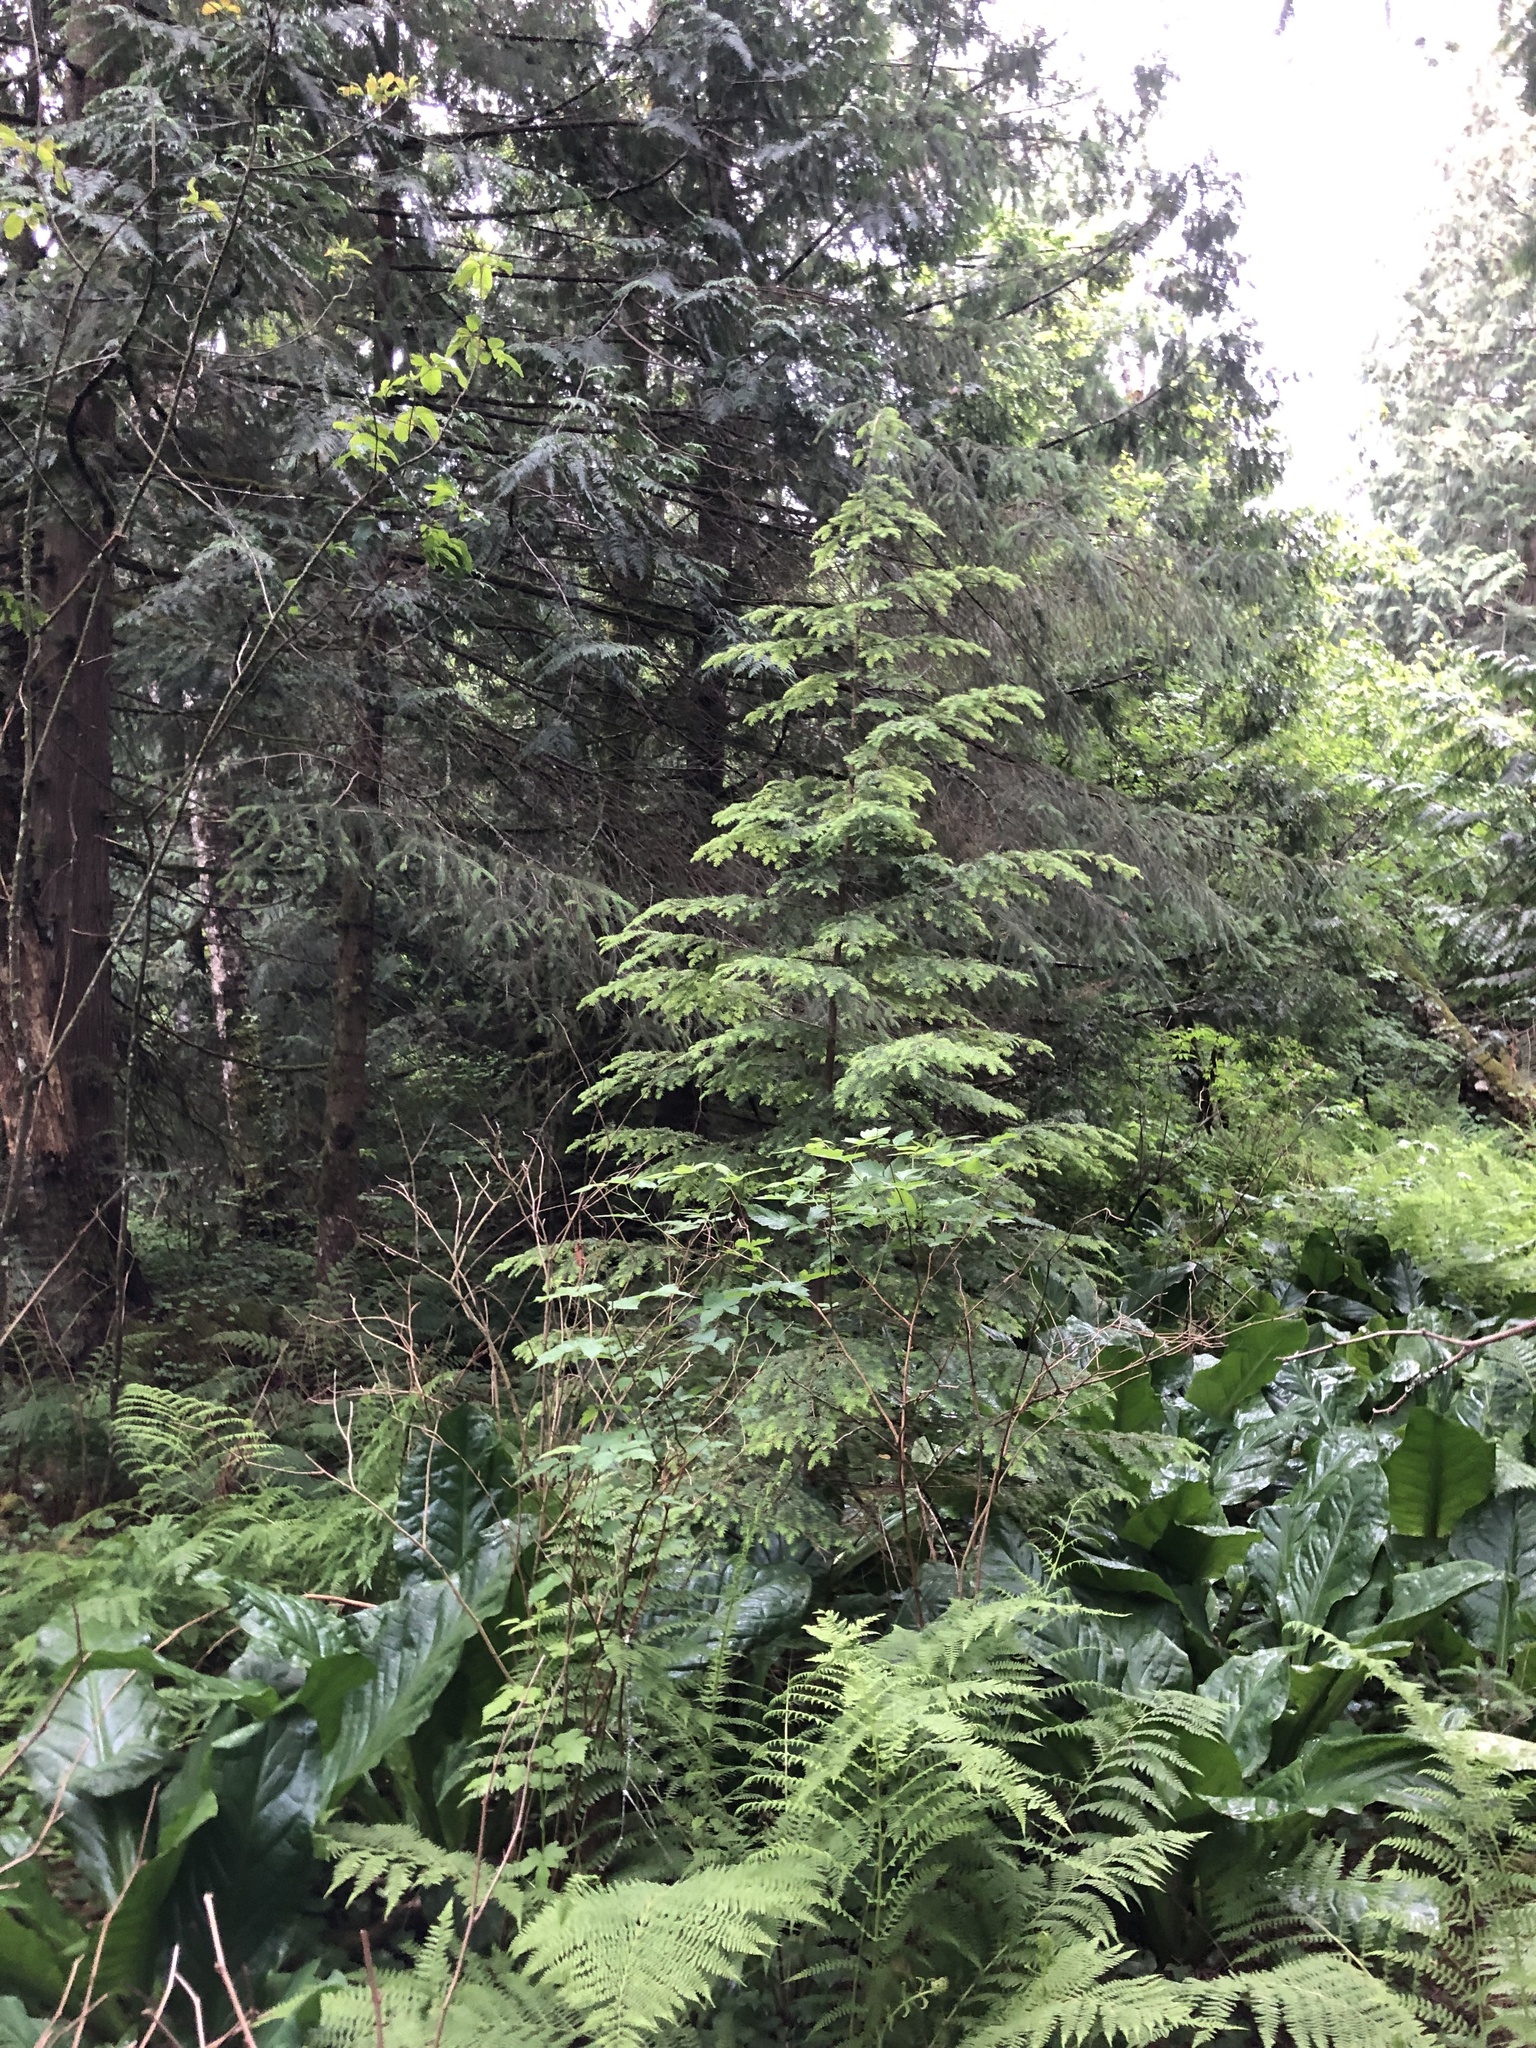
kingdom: Plantae
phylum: Tracheophyta
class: Pinopsida
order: Pinales
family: Pinaceae
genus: Tsuga
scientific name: Tsuga heterophylla
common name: Western hemlock
